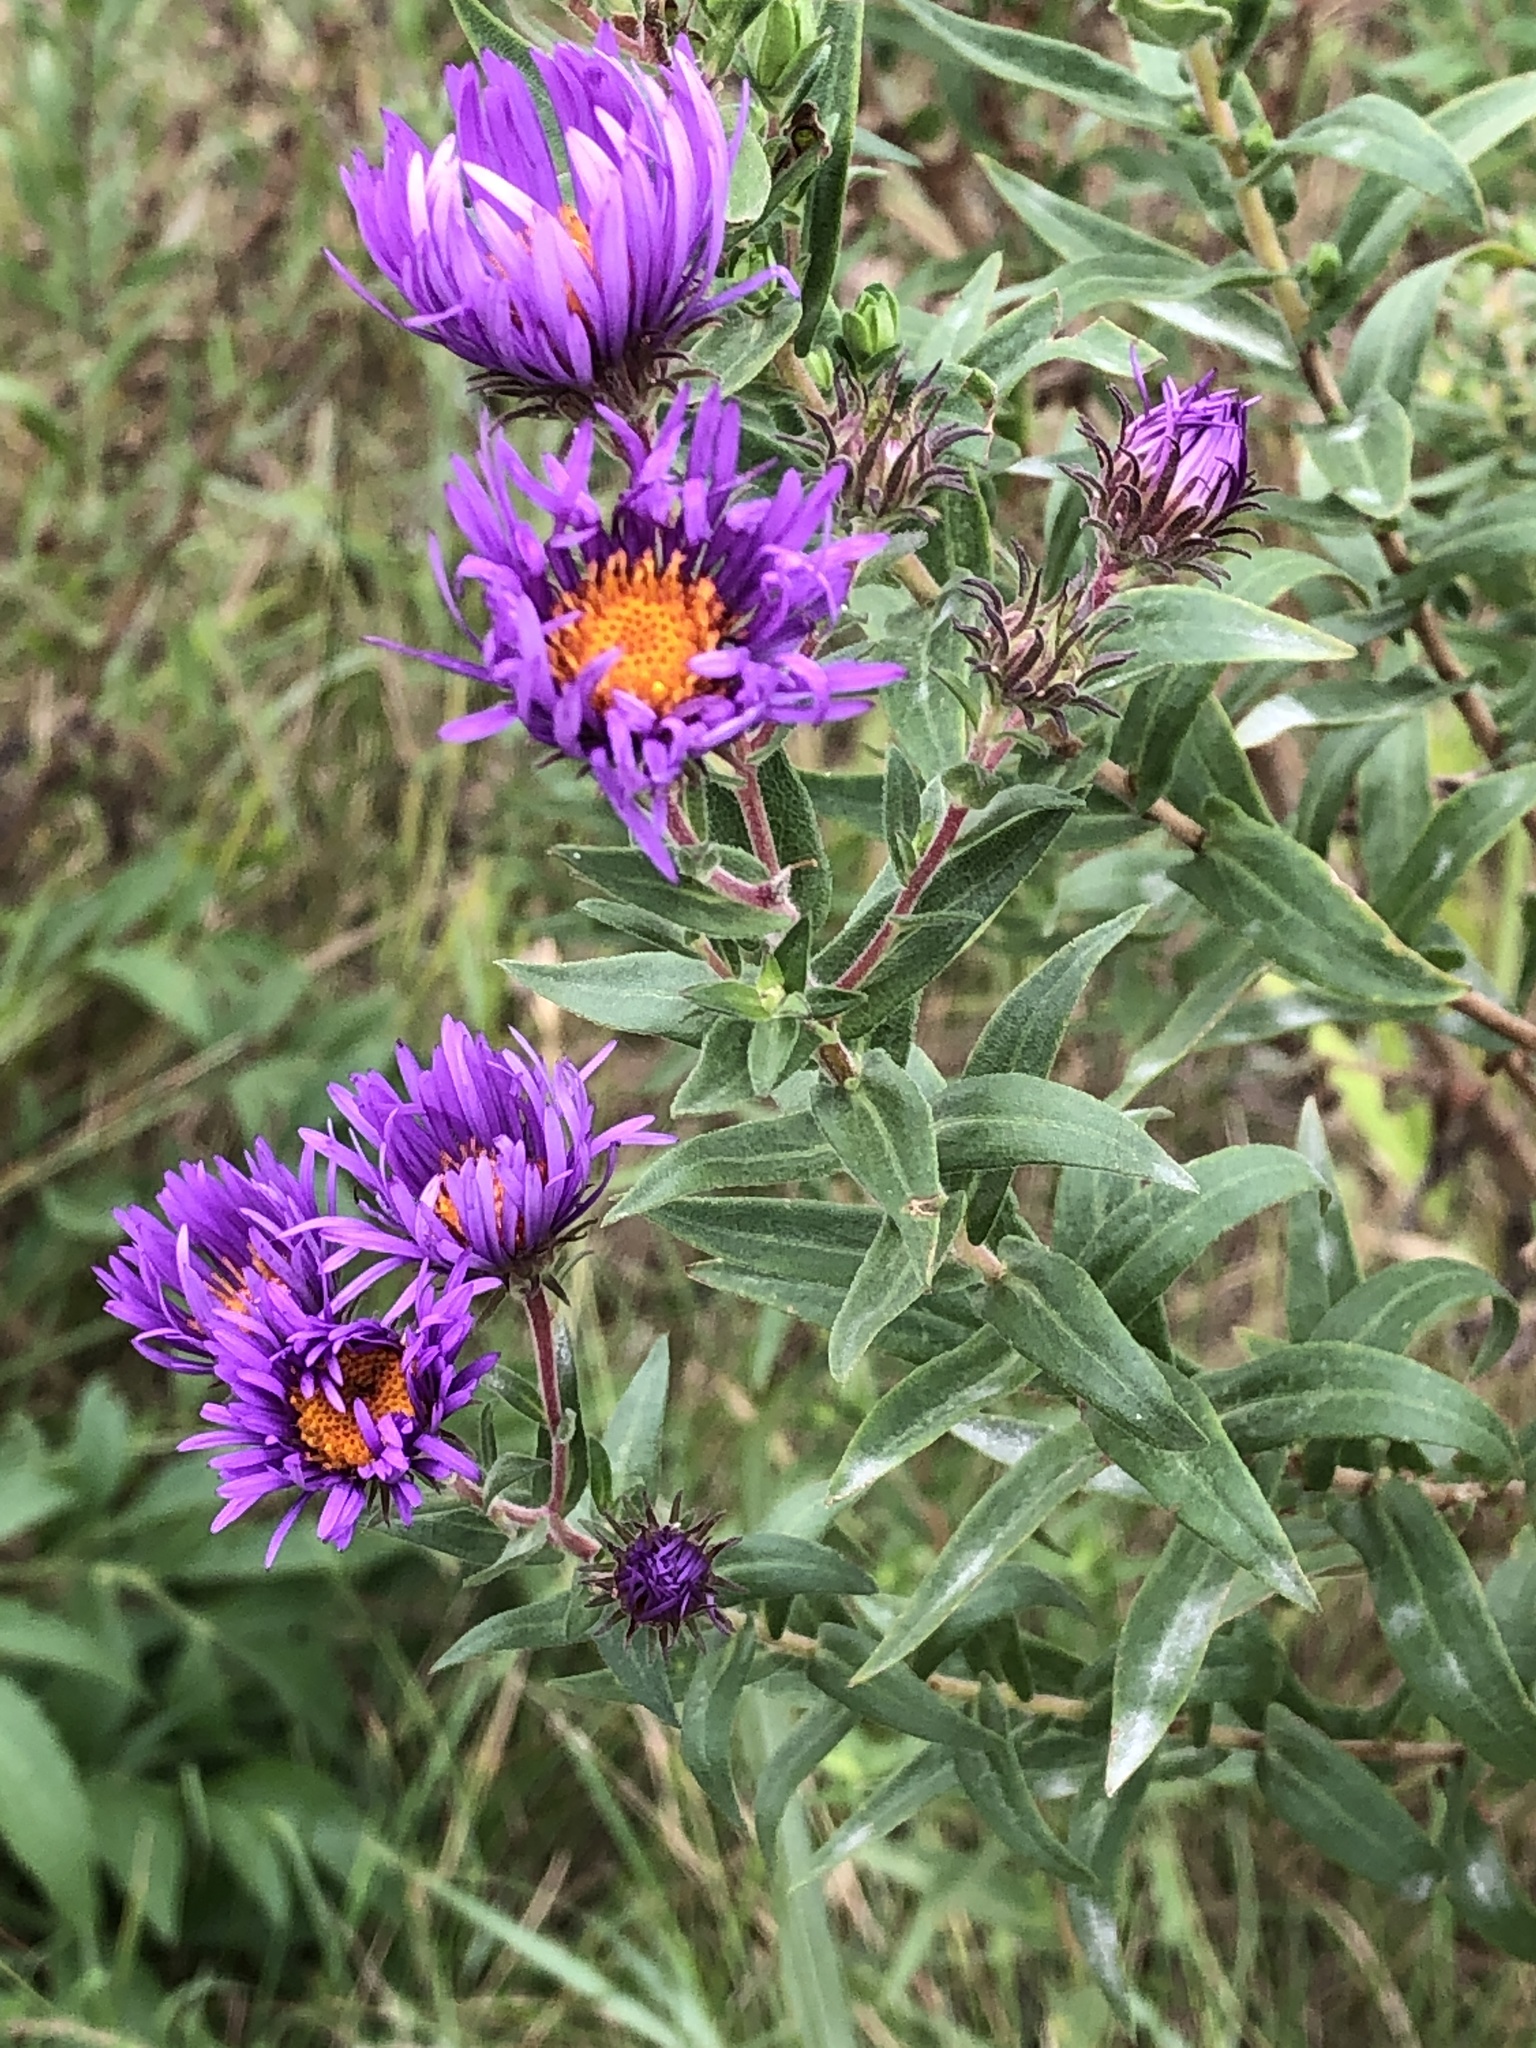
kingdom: Plantae
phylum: Tracheophyta
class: Magnoliopsida
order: Asterales
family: Asteraceae
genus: Symphyotrichum
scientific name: Symphyotrichum novae-angliae
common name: Michaelmas daisy
